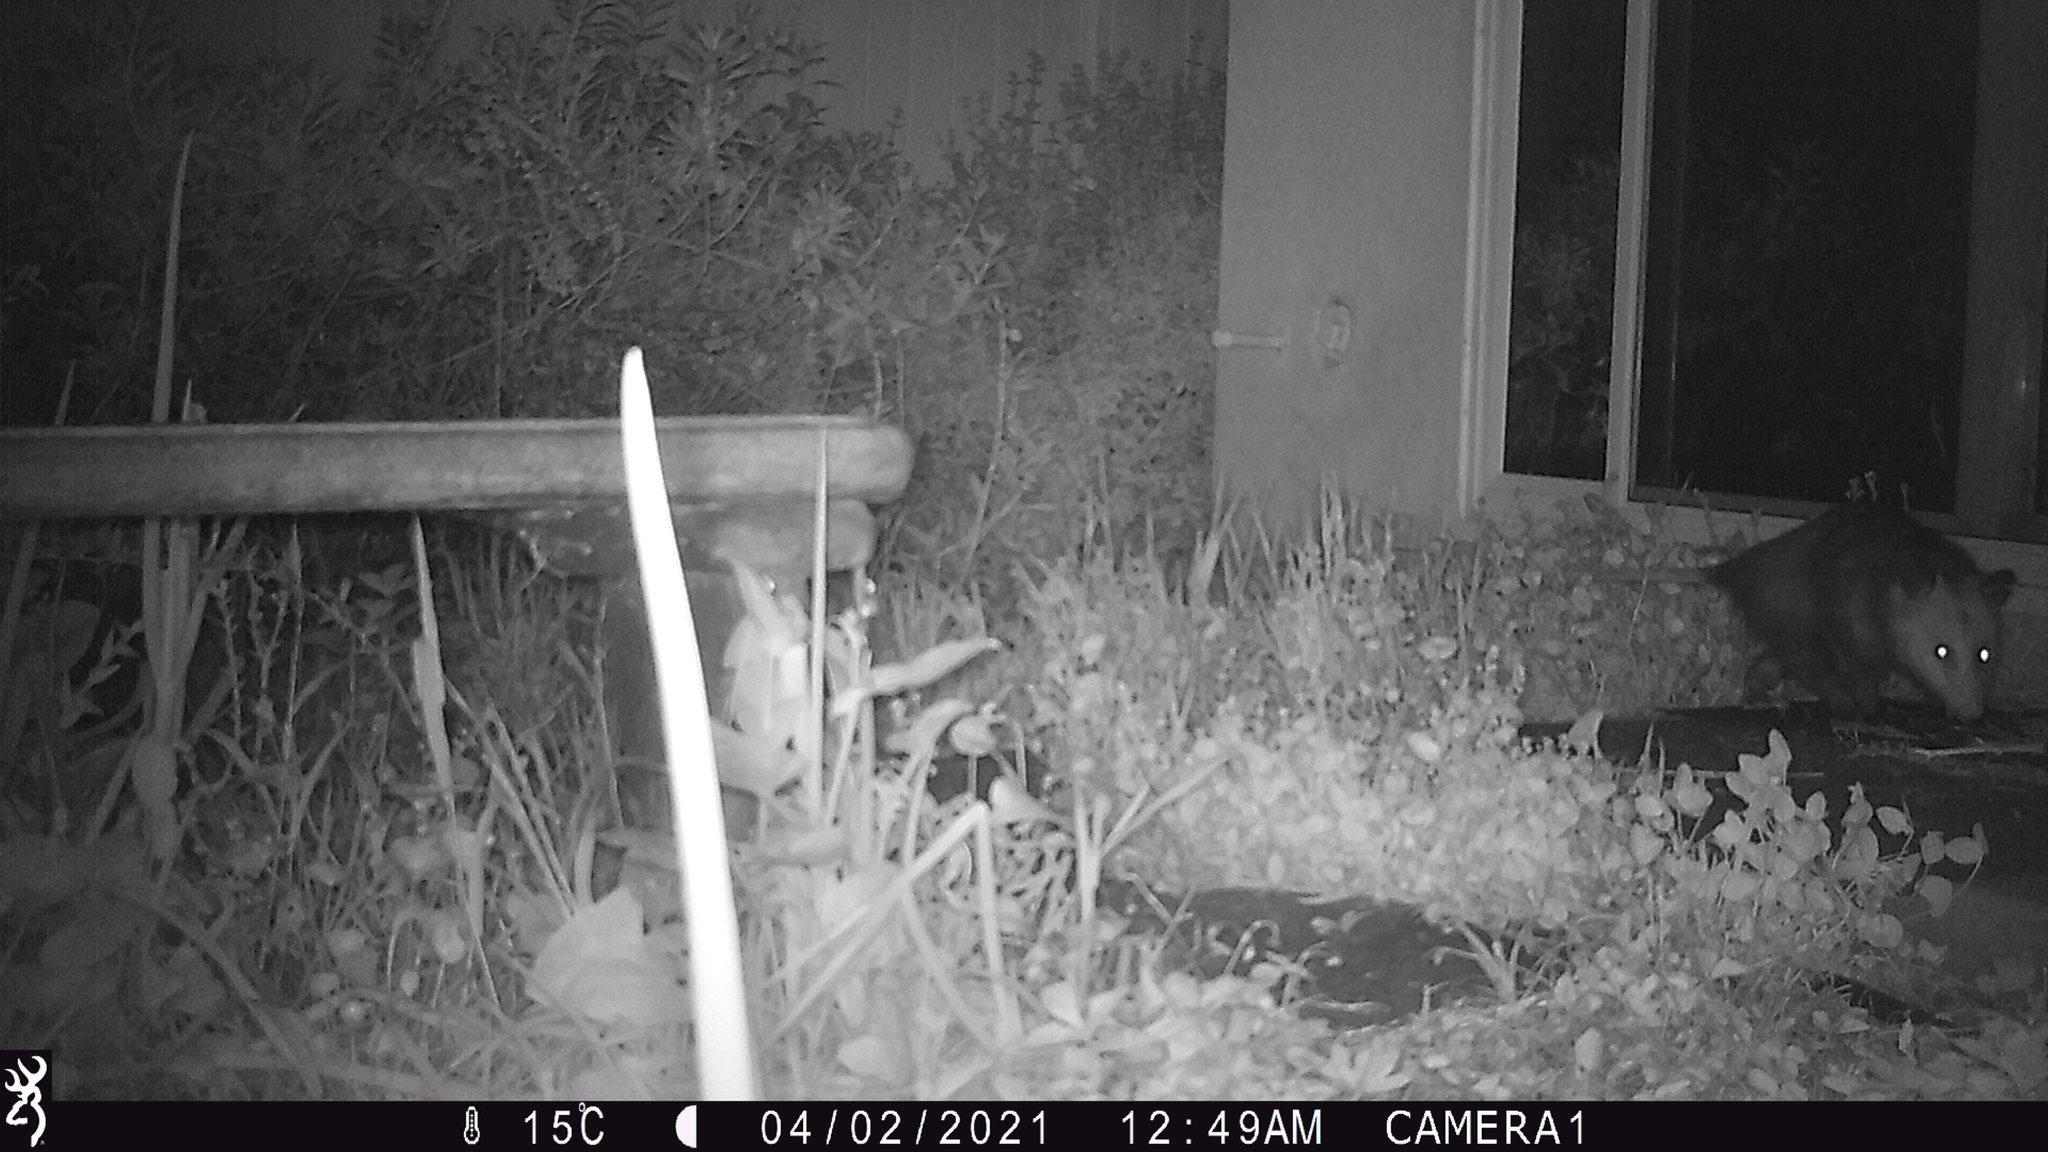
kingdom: Animalia
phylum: Chordata
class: Mammalia
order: Didelphimorphia
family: Didelphidae
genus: Didelphis
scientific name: Didelphis virginiana
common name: Virginia opossum
